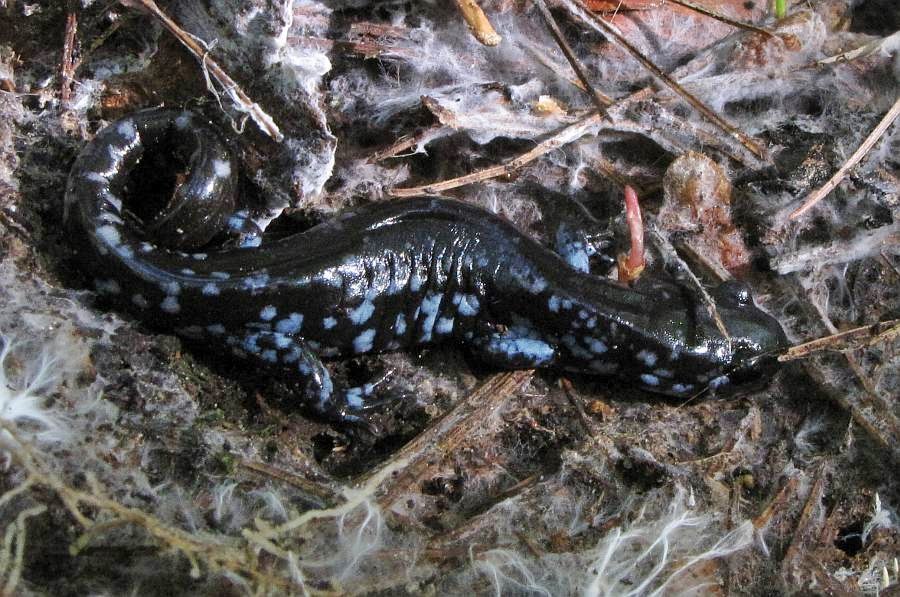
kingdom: Animalia
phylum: Chordata
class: Amphibia
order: Caudata
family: Ambystomatidae
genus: Ambystoma
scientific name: Ambystoma laterale
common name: Blue-spotted salamander
